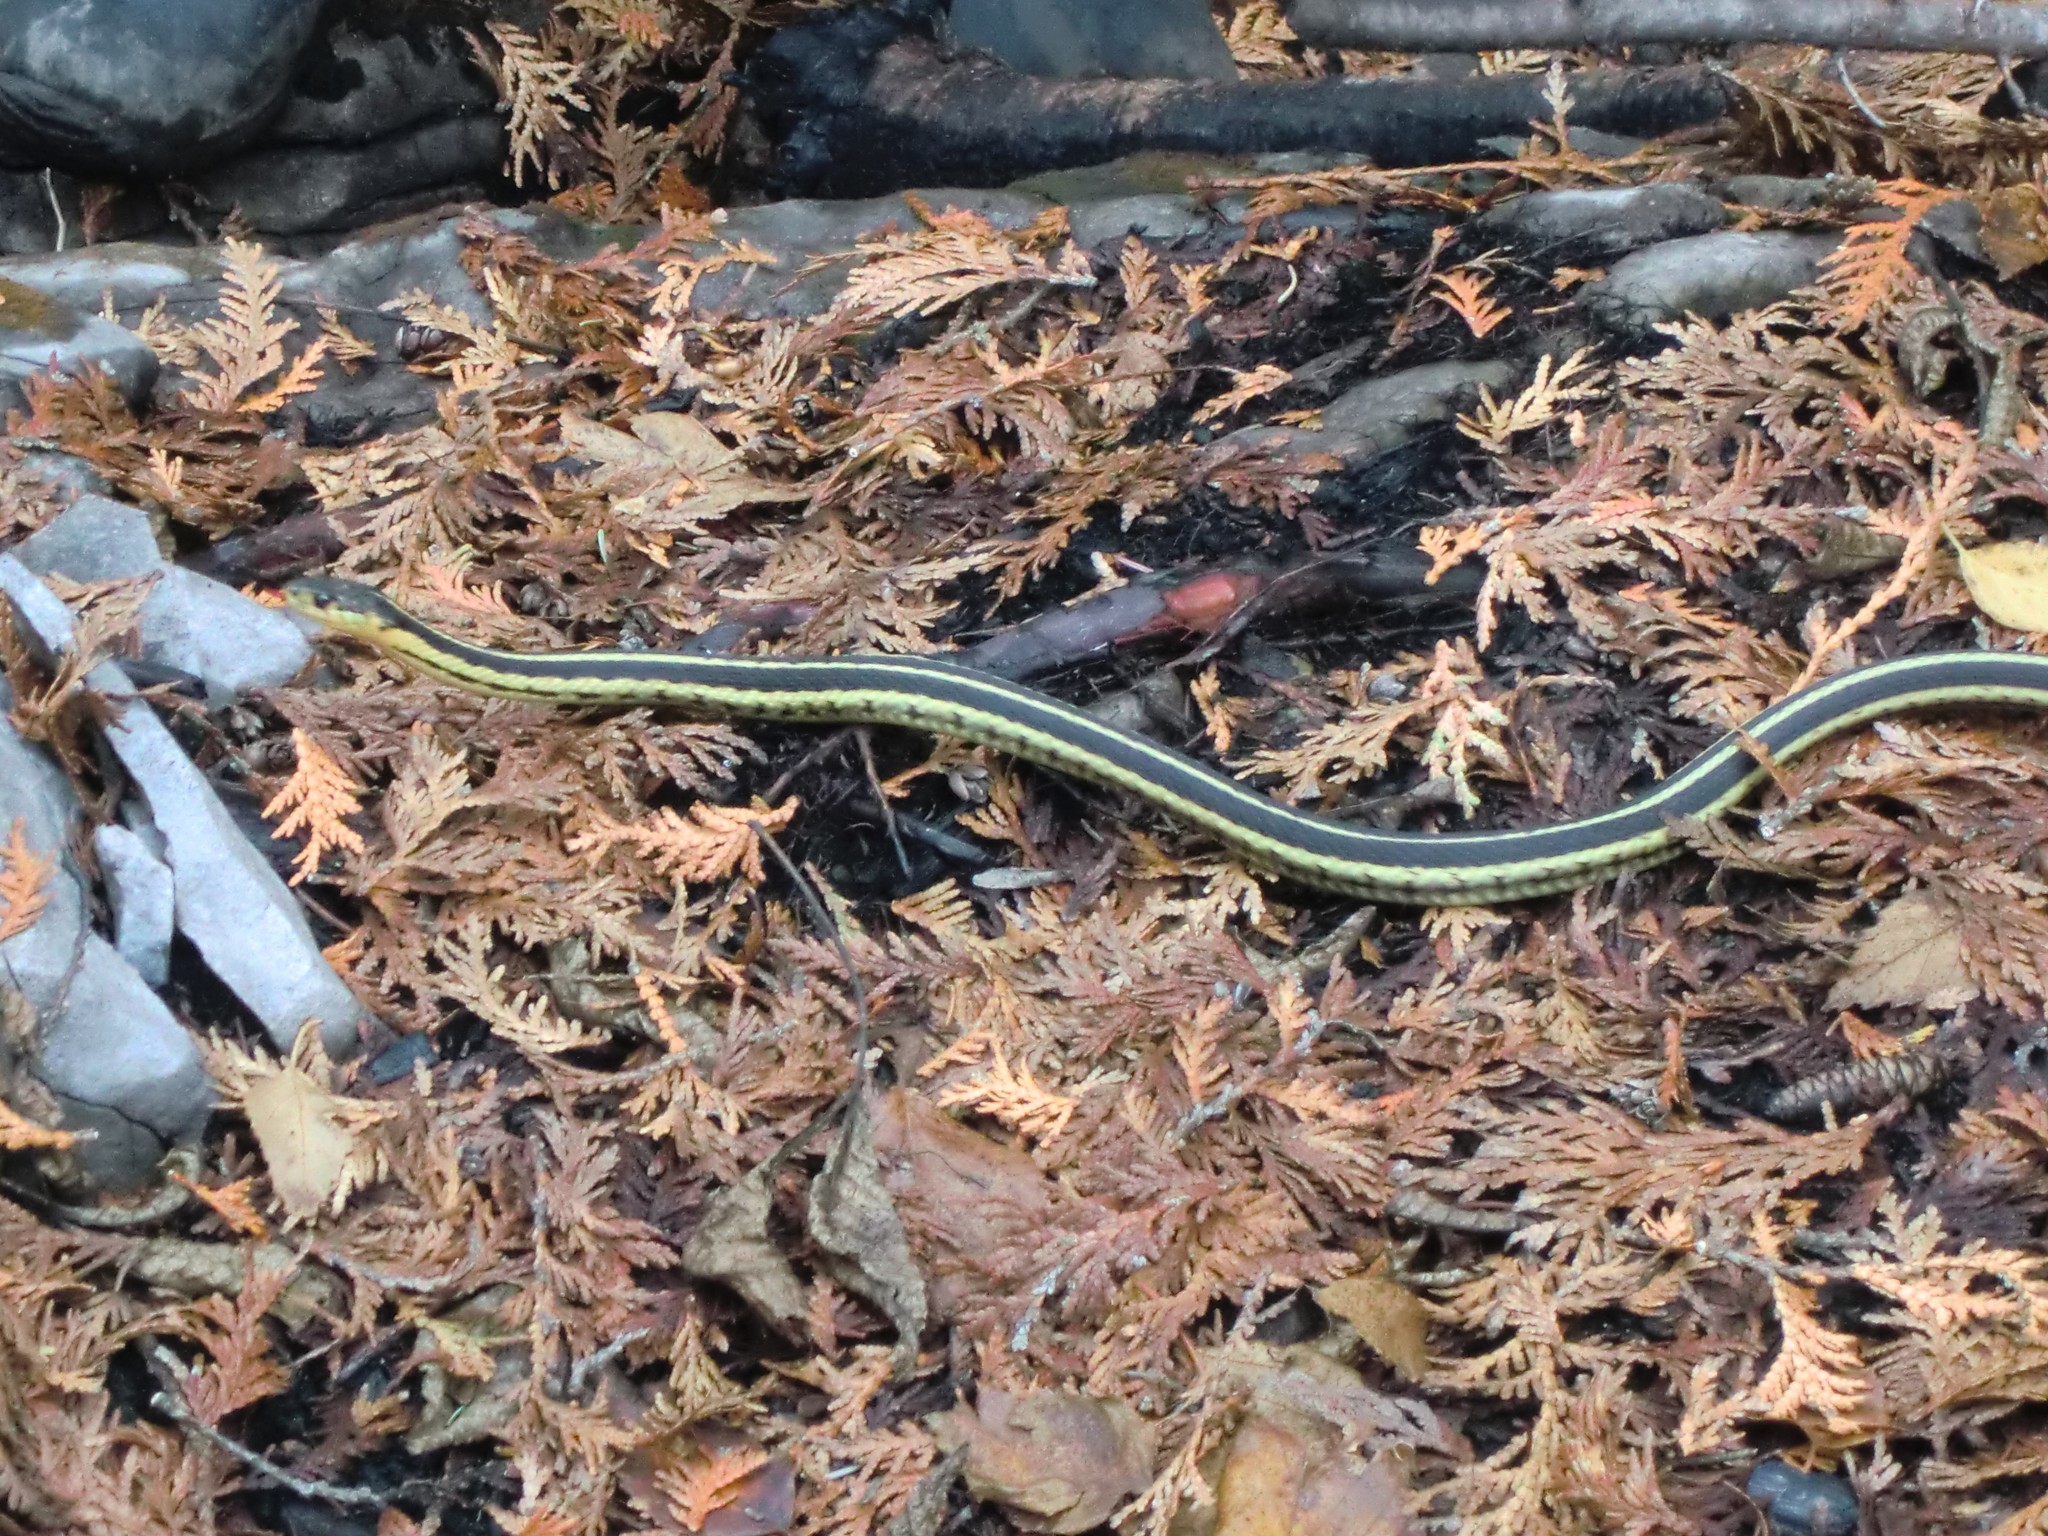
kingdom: Animalia
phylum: Chordata
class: Squamata
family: Colubridae
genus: Thamnophis
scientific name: Thamnophis sirtalis
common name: Common garter snake
